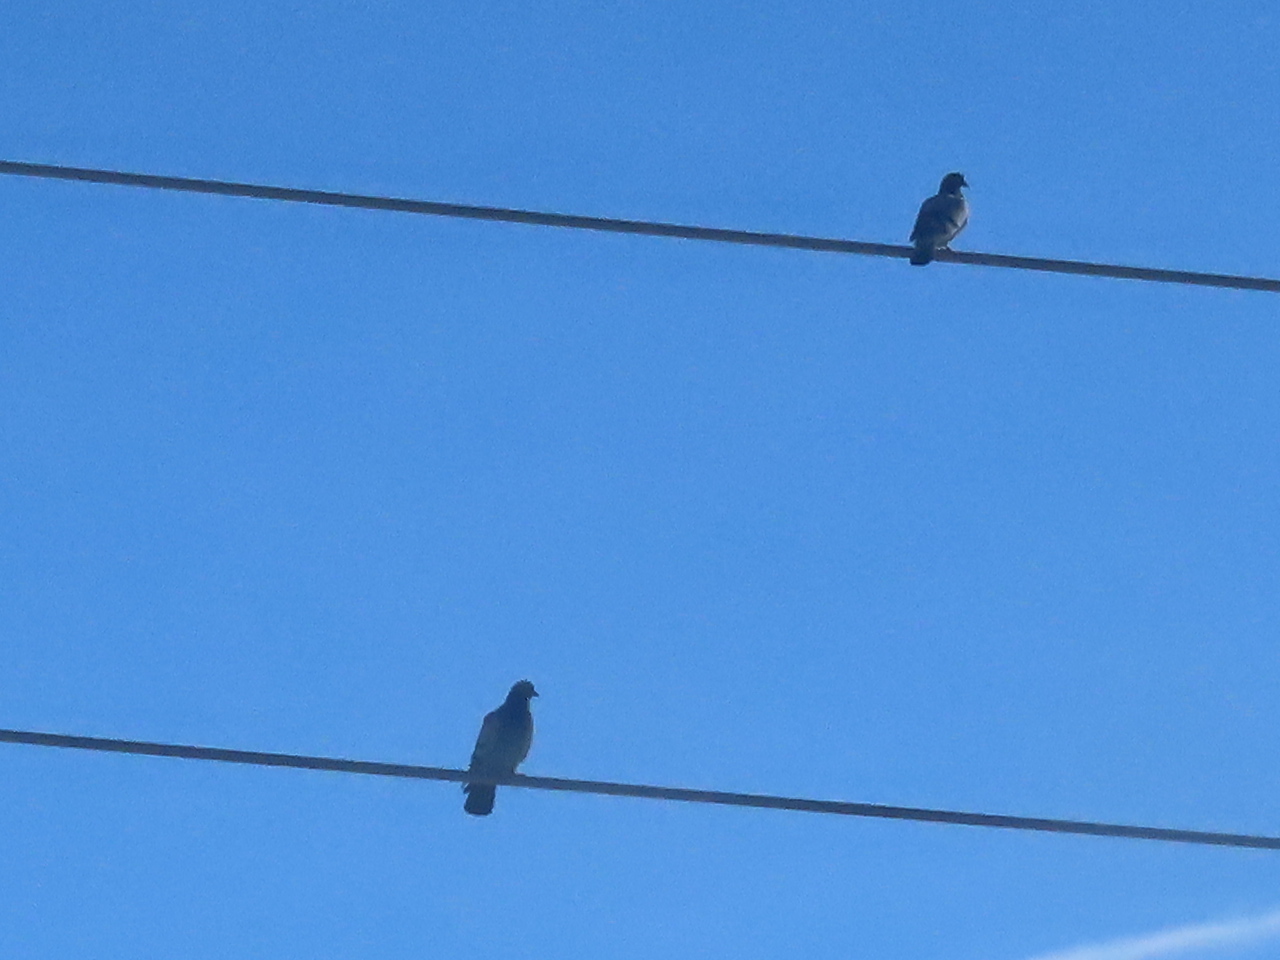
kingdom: Animalia
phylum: Chordata
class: Aves
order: Columbiformes
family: Columbidae
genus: Columba
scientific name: Columba livia
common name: Rock pigeon
